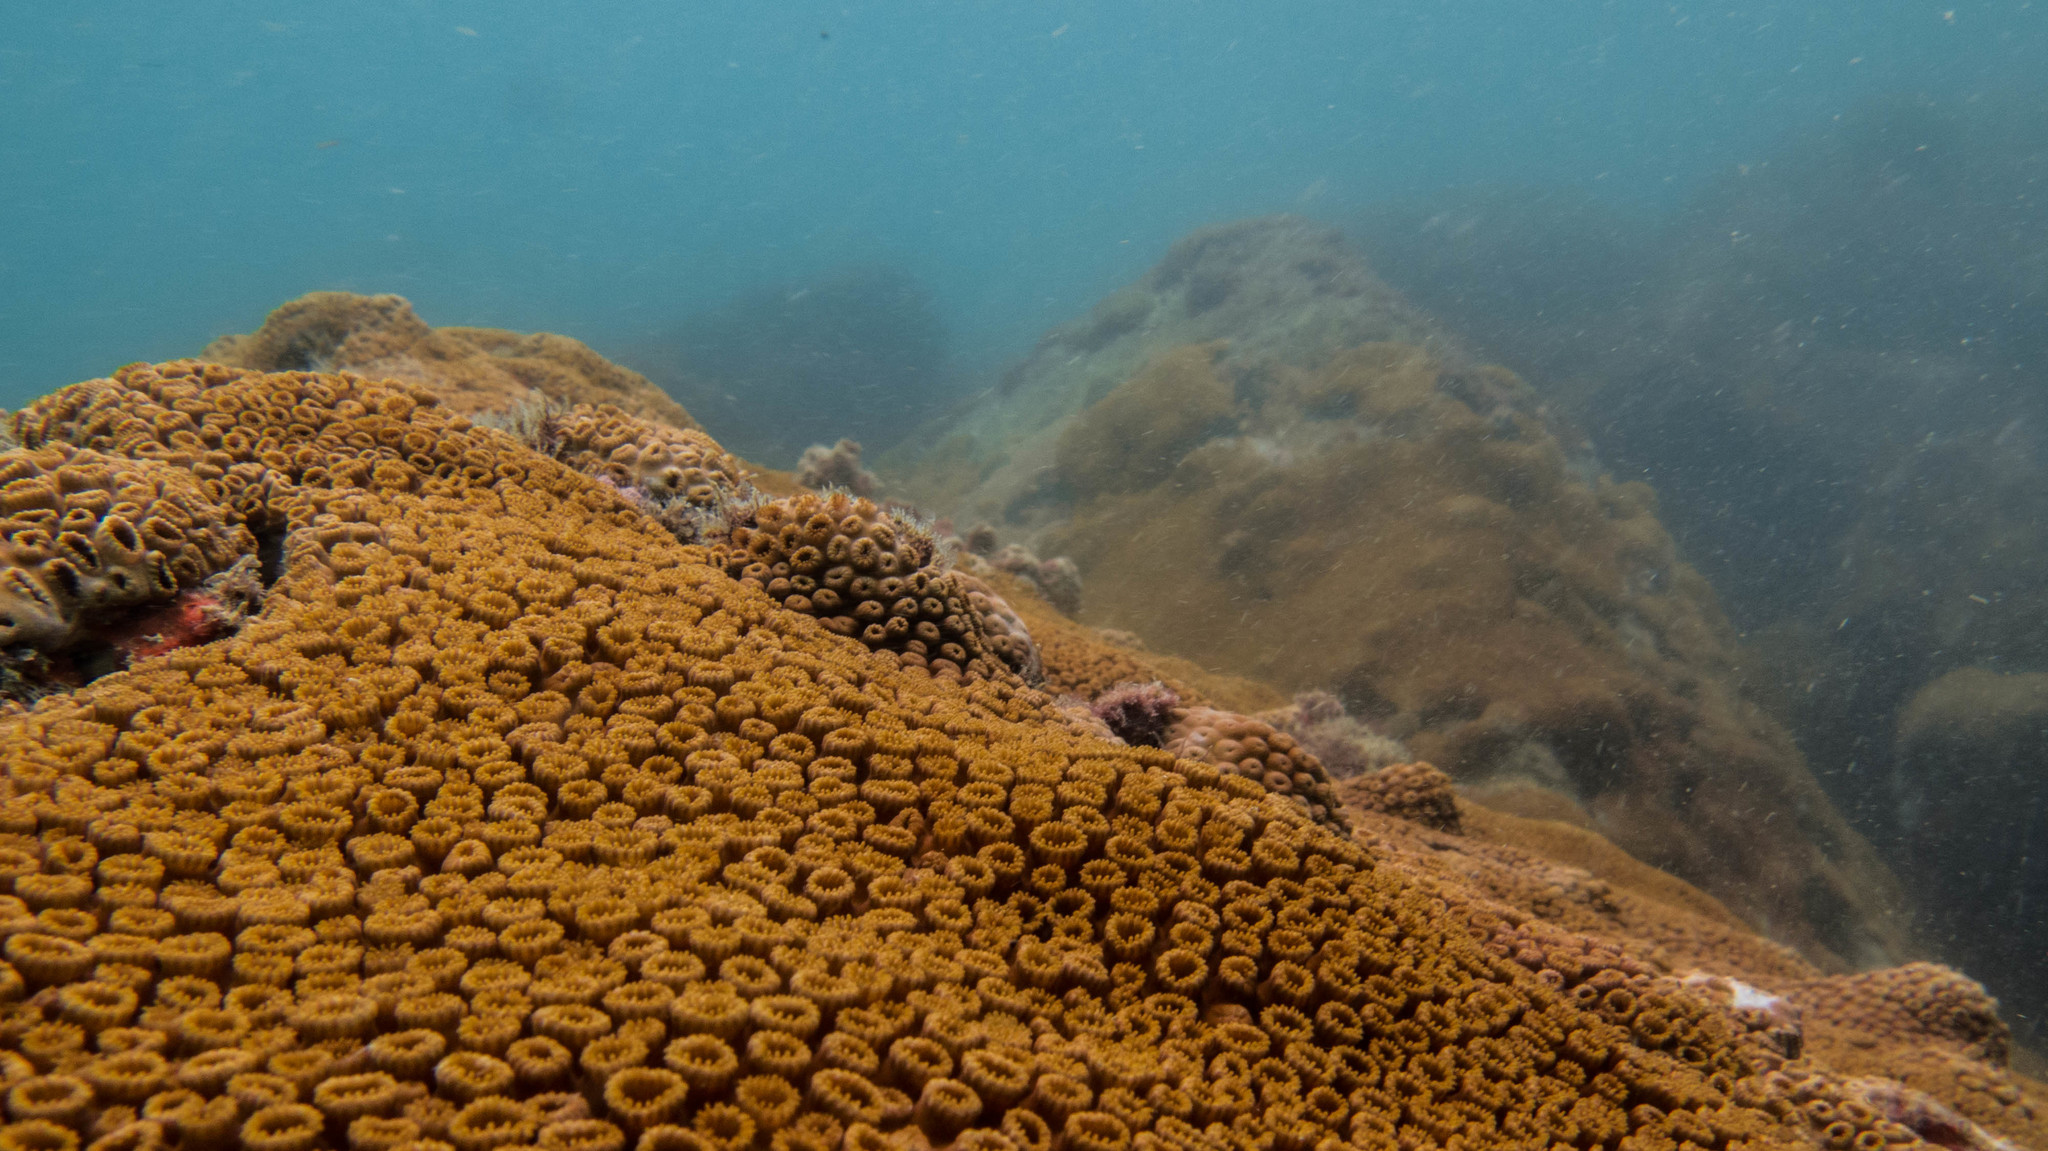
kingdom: Animalia
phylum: Cnidaria
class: Anthozoa
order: Zoantharia
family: Sphenopidae
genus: Palythoa
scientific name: Palythoa caribaeorum
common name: Encrusting colonial anemone
